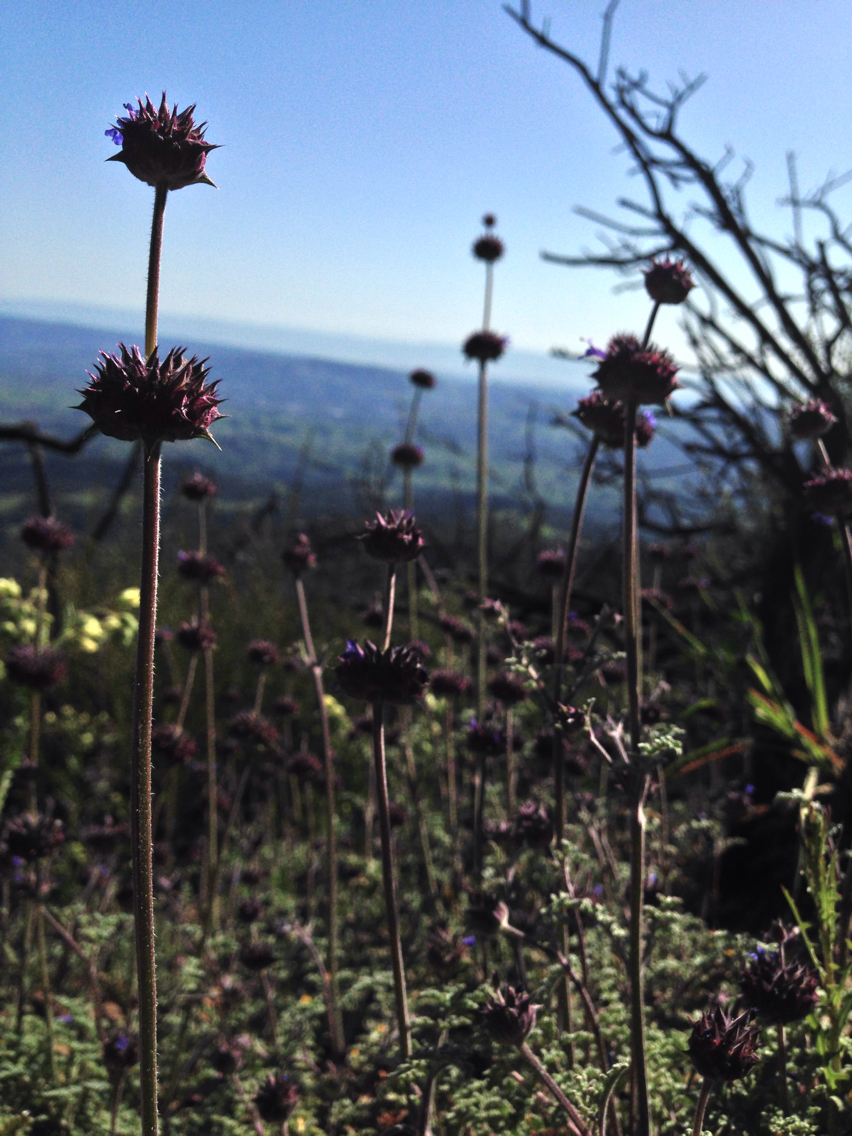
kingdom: Plantae
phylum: Tracheophyta
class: Magnoliopsida
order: Lamiales
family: Lamiaceae
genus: Salvia
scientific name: Salvia columbariae
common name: Chia
